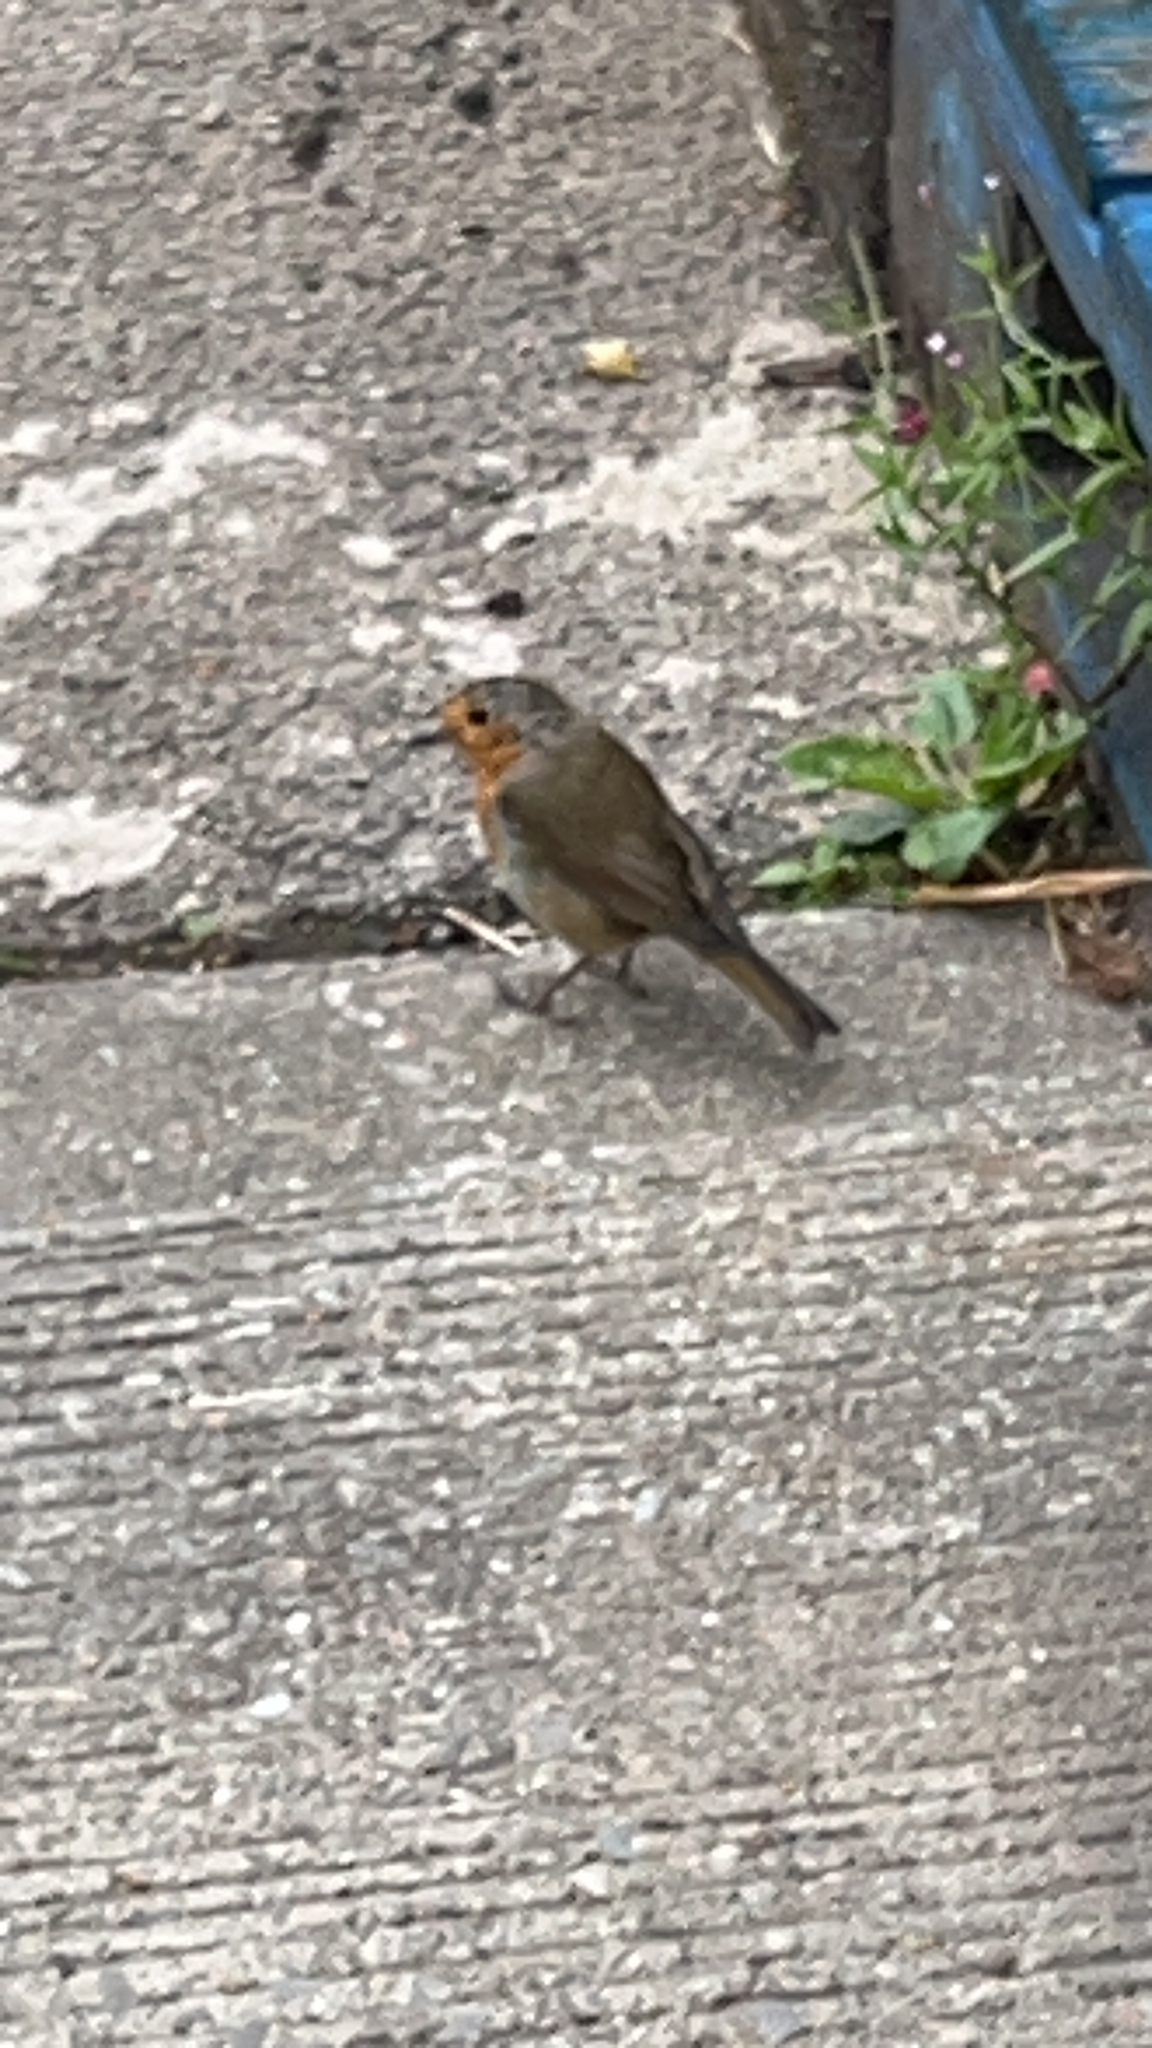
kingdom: Animalia
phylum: Chordata
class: Aves
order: Passeriformes
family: Muscicapidae
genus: Erithacus
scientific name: Erithacus rubecula
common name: European robin
